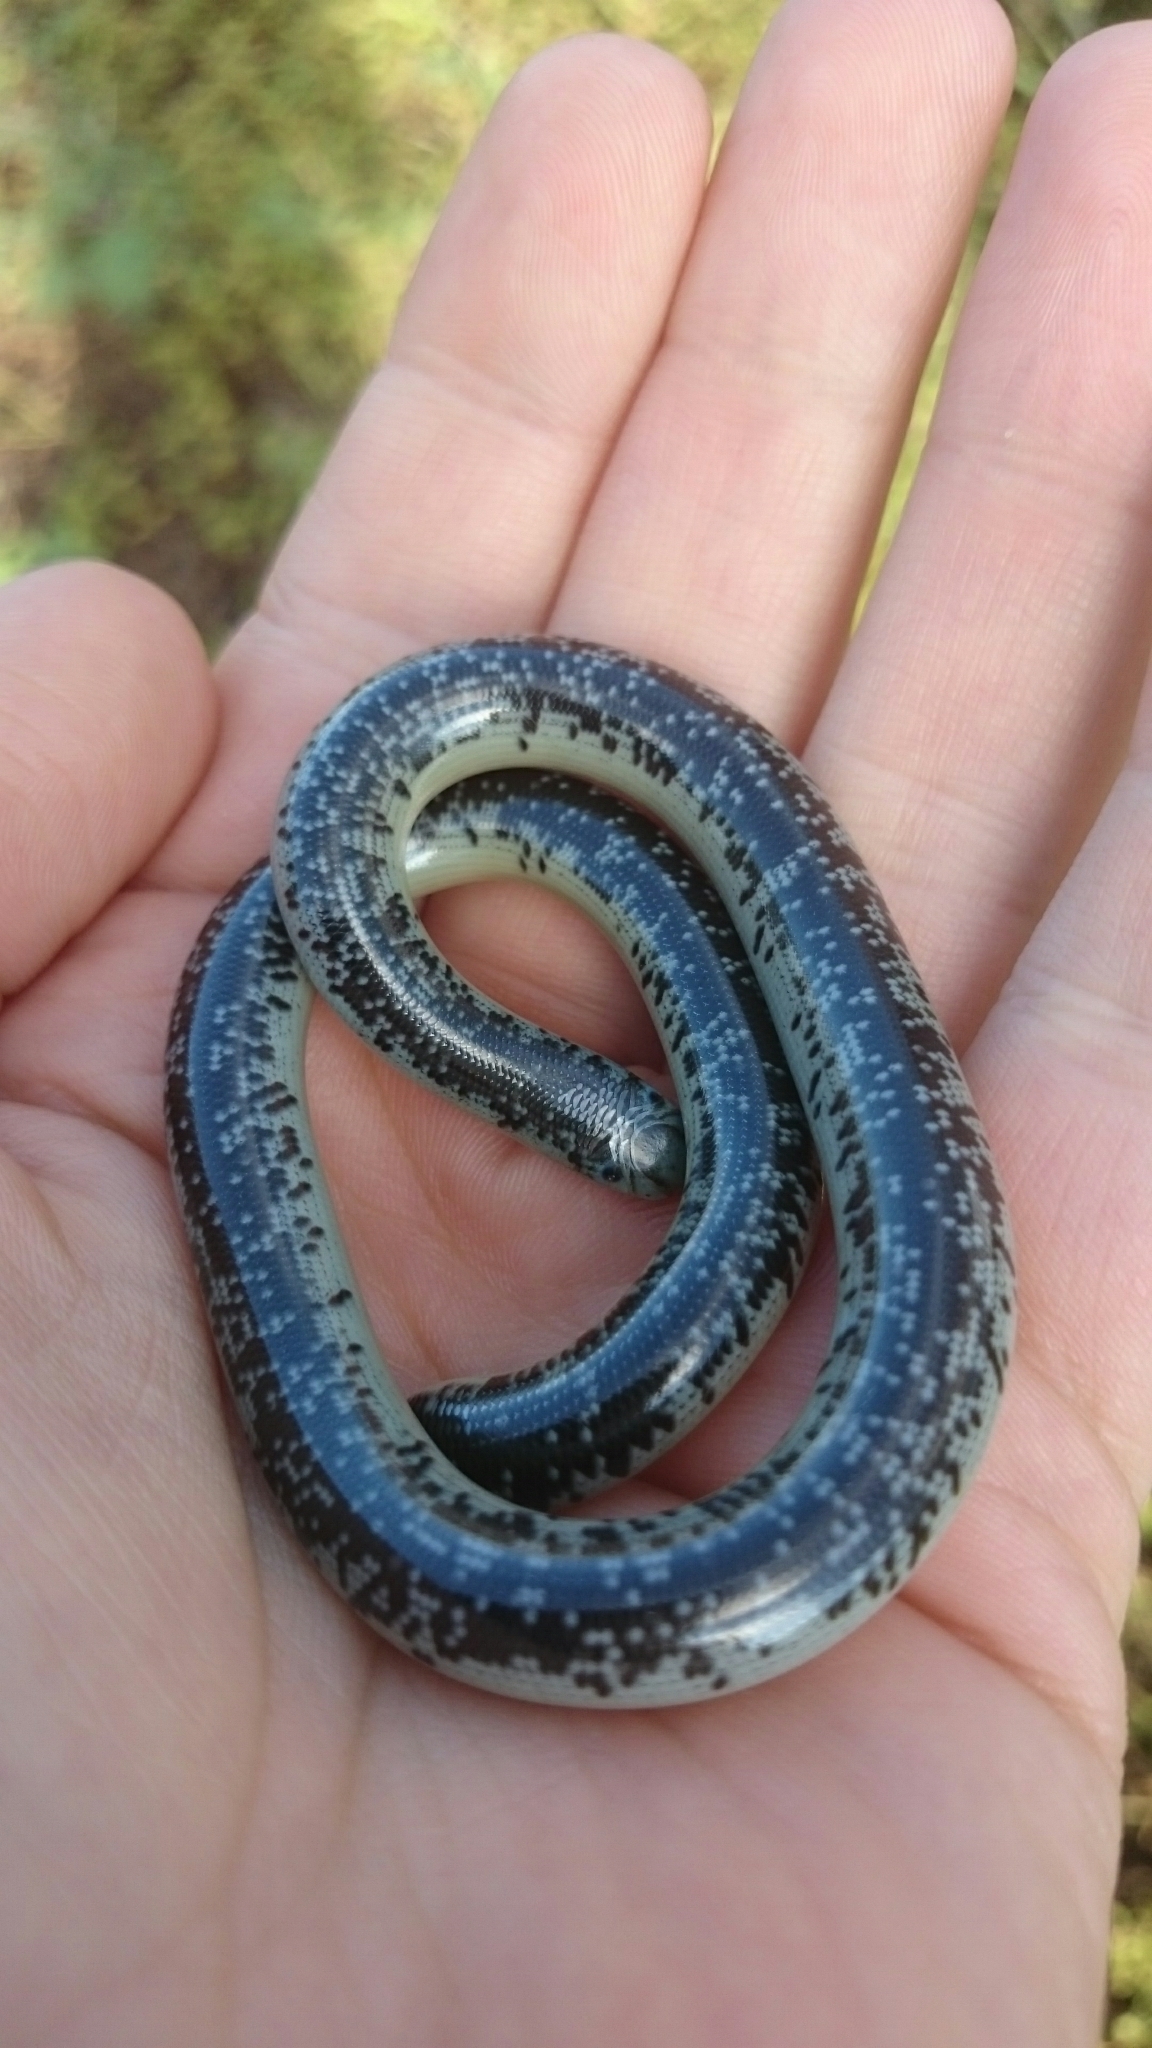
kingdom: Animalia
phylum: Chordata
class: Squamata
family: Typhlopidae
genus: Afrotyphlops
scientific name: Afrotyphlops schlegelii
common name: Schlegel's giant blind snake
